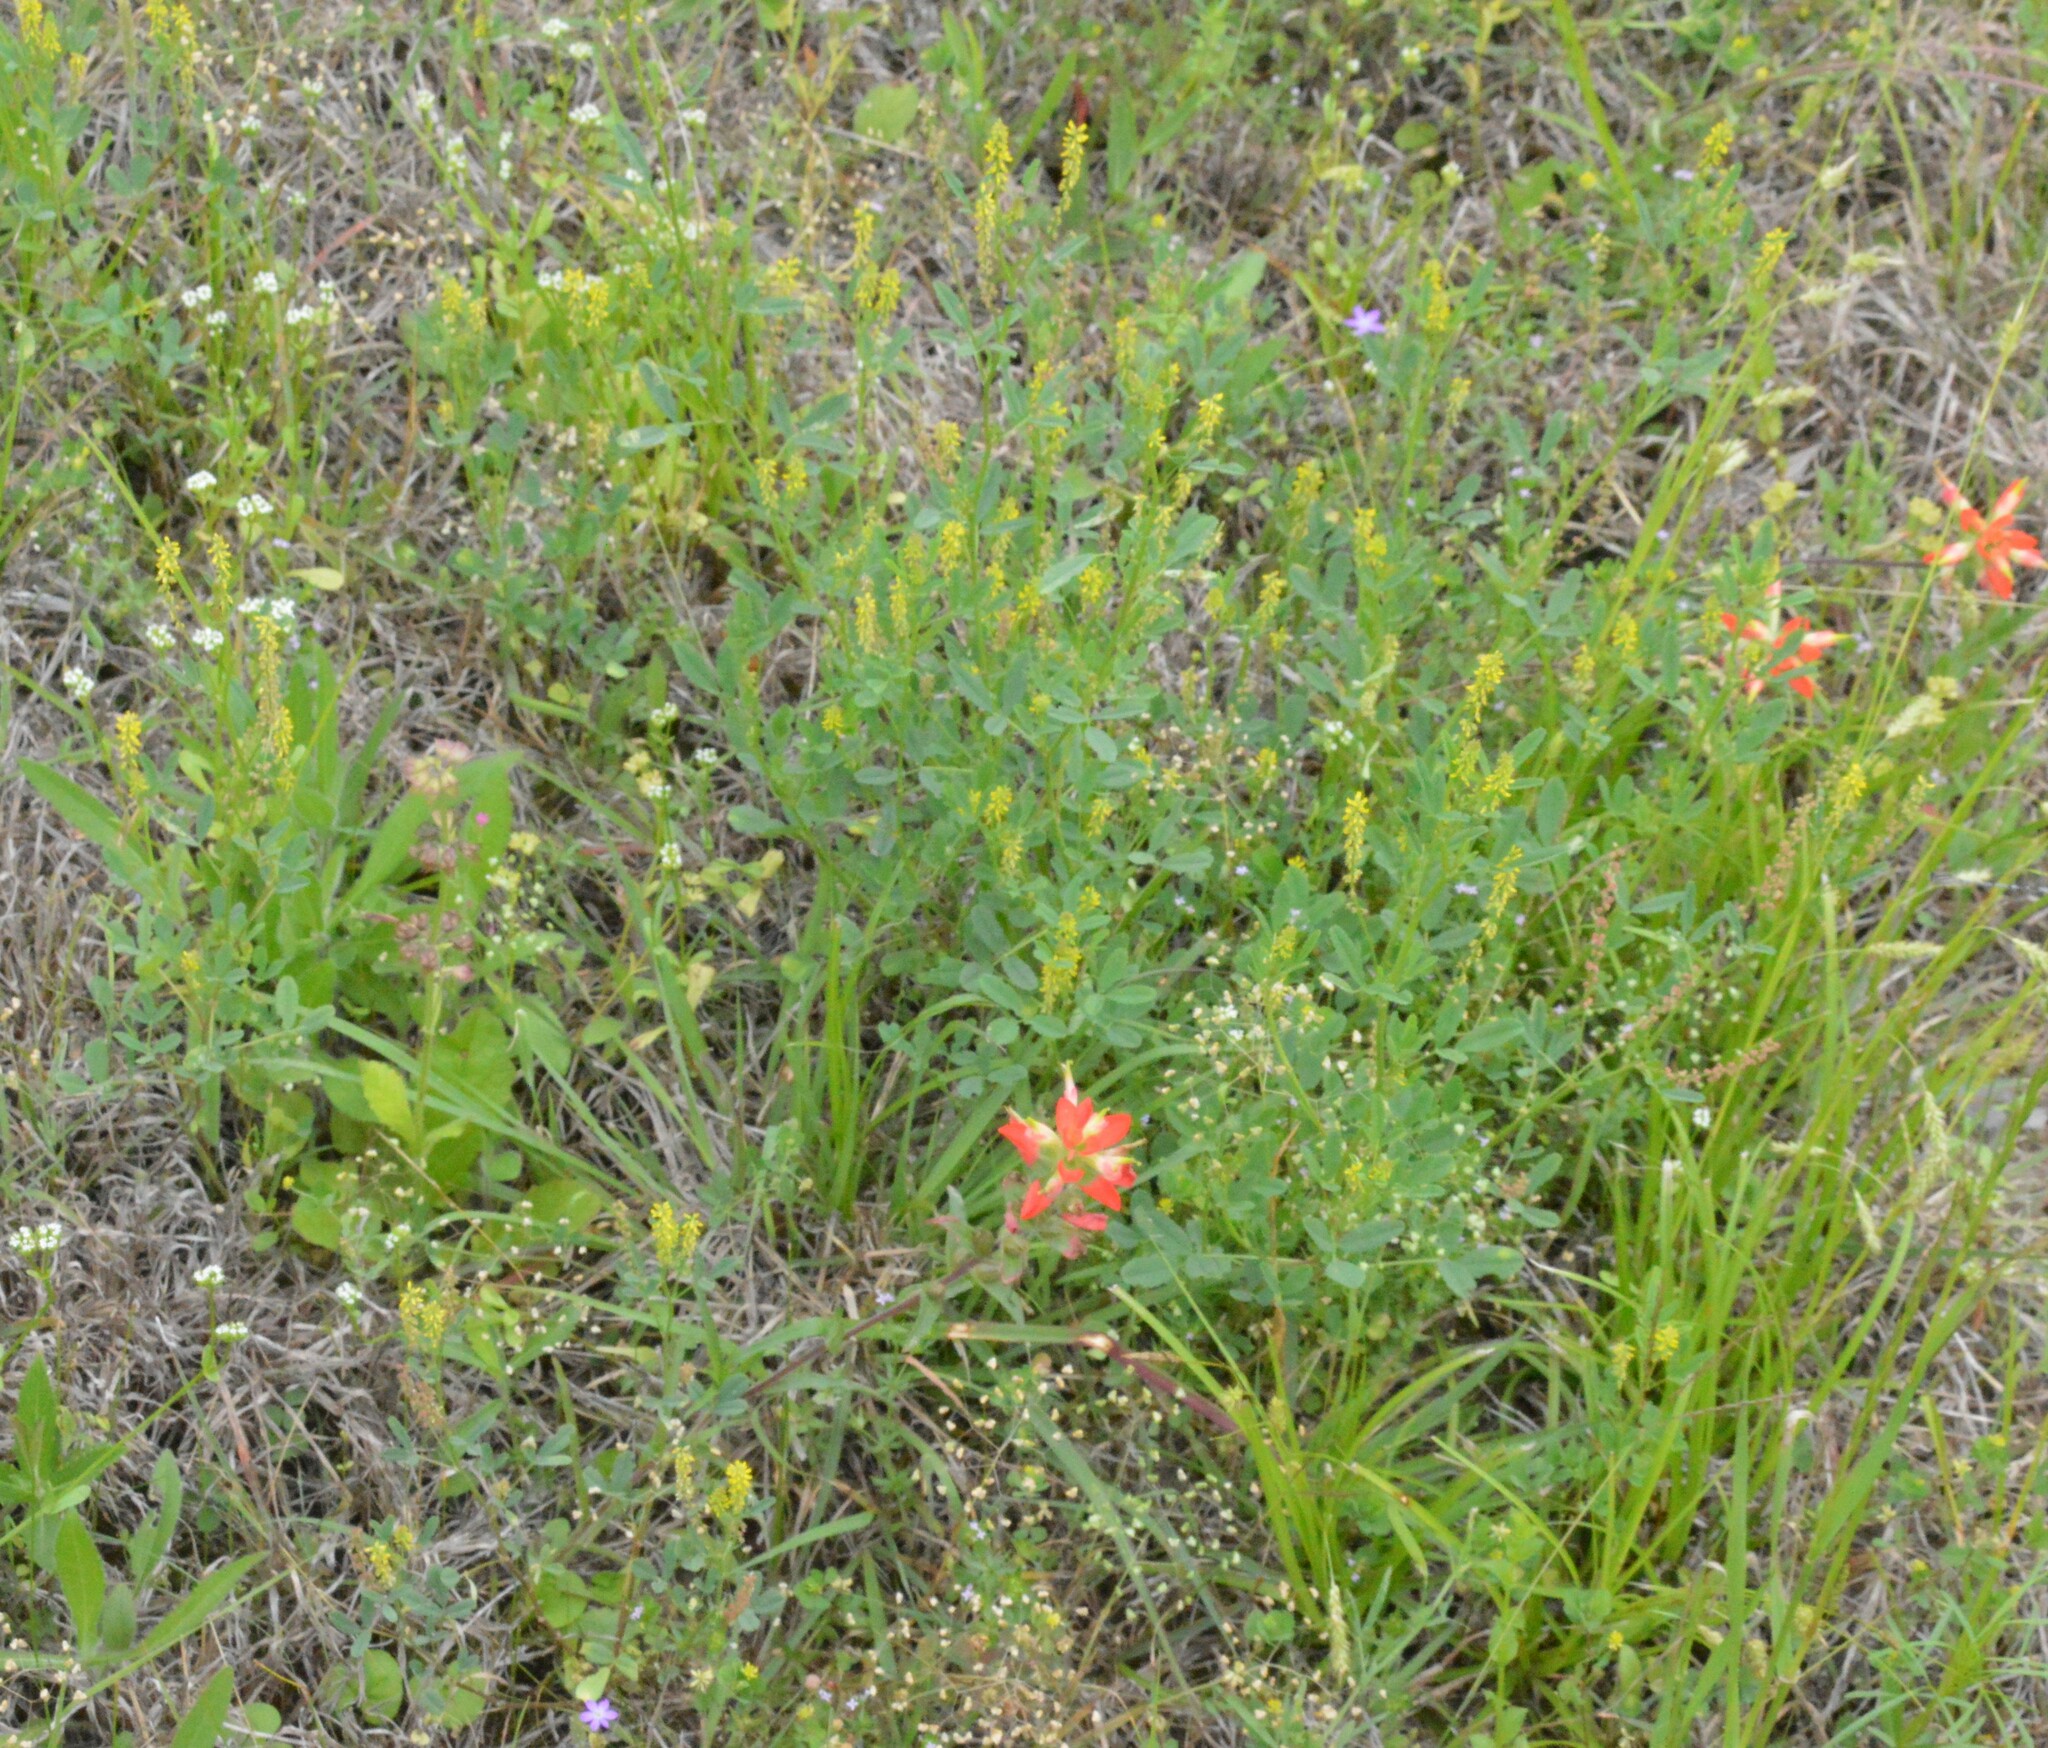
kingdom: Plantae
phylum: Tracheophyta
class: Magnoliopsida
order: Lamiales
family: Orobanchaceae
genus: Castilleja
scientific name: Castilleja indivisa
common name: Texas paintbrush
